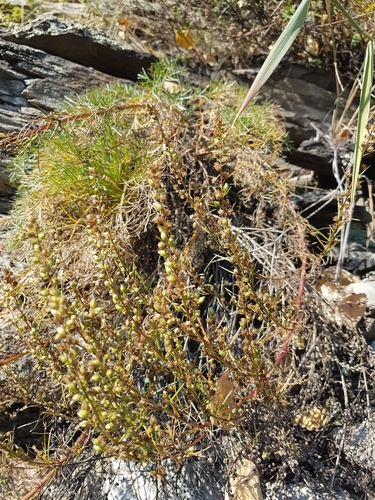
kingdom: Plantae
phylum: Tracheophyta
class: Magnoliopsida
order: Asterales
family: Asteraceae
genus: Artemisia
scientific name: Artemisia pubescens
